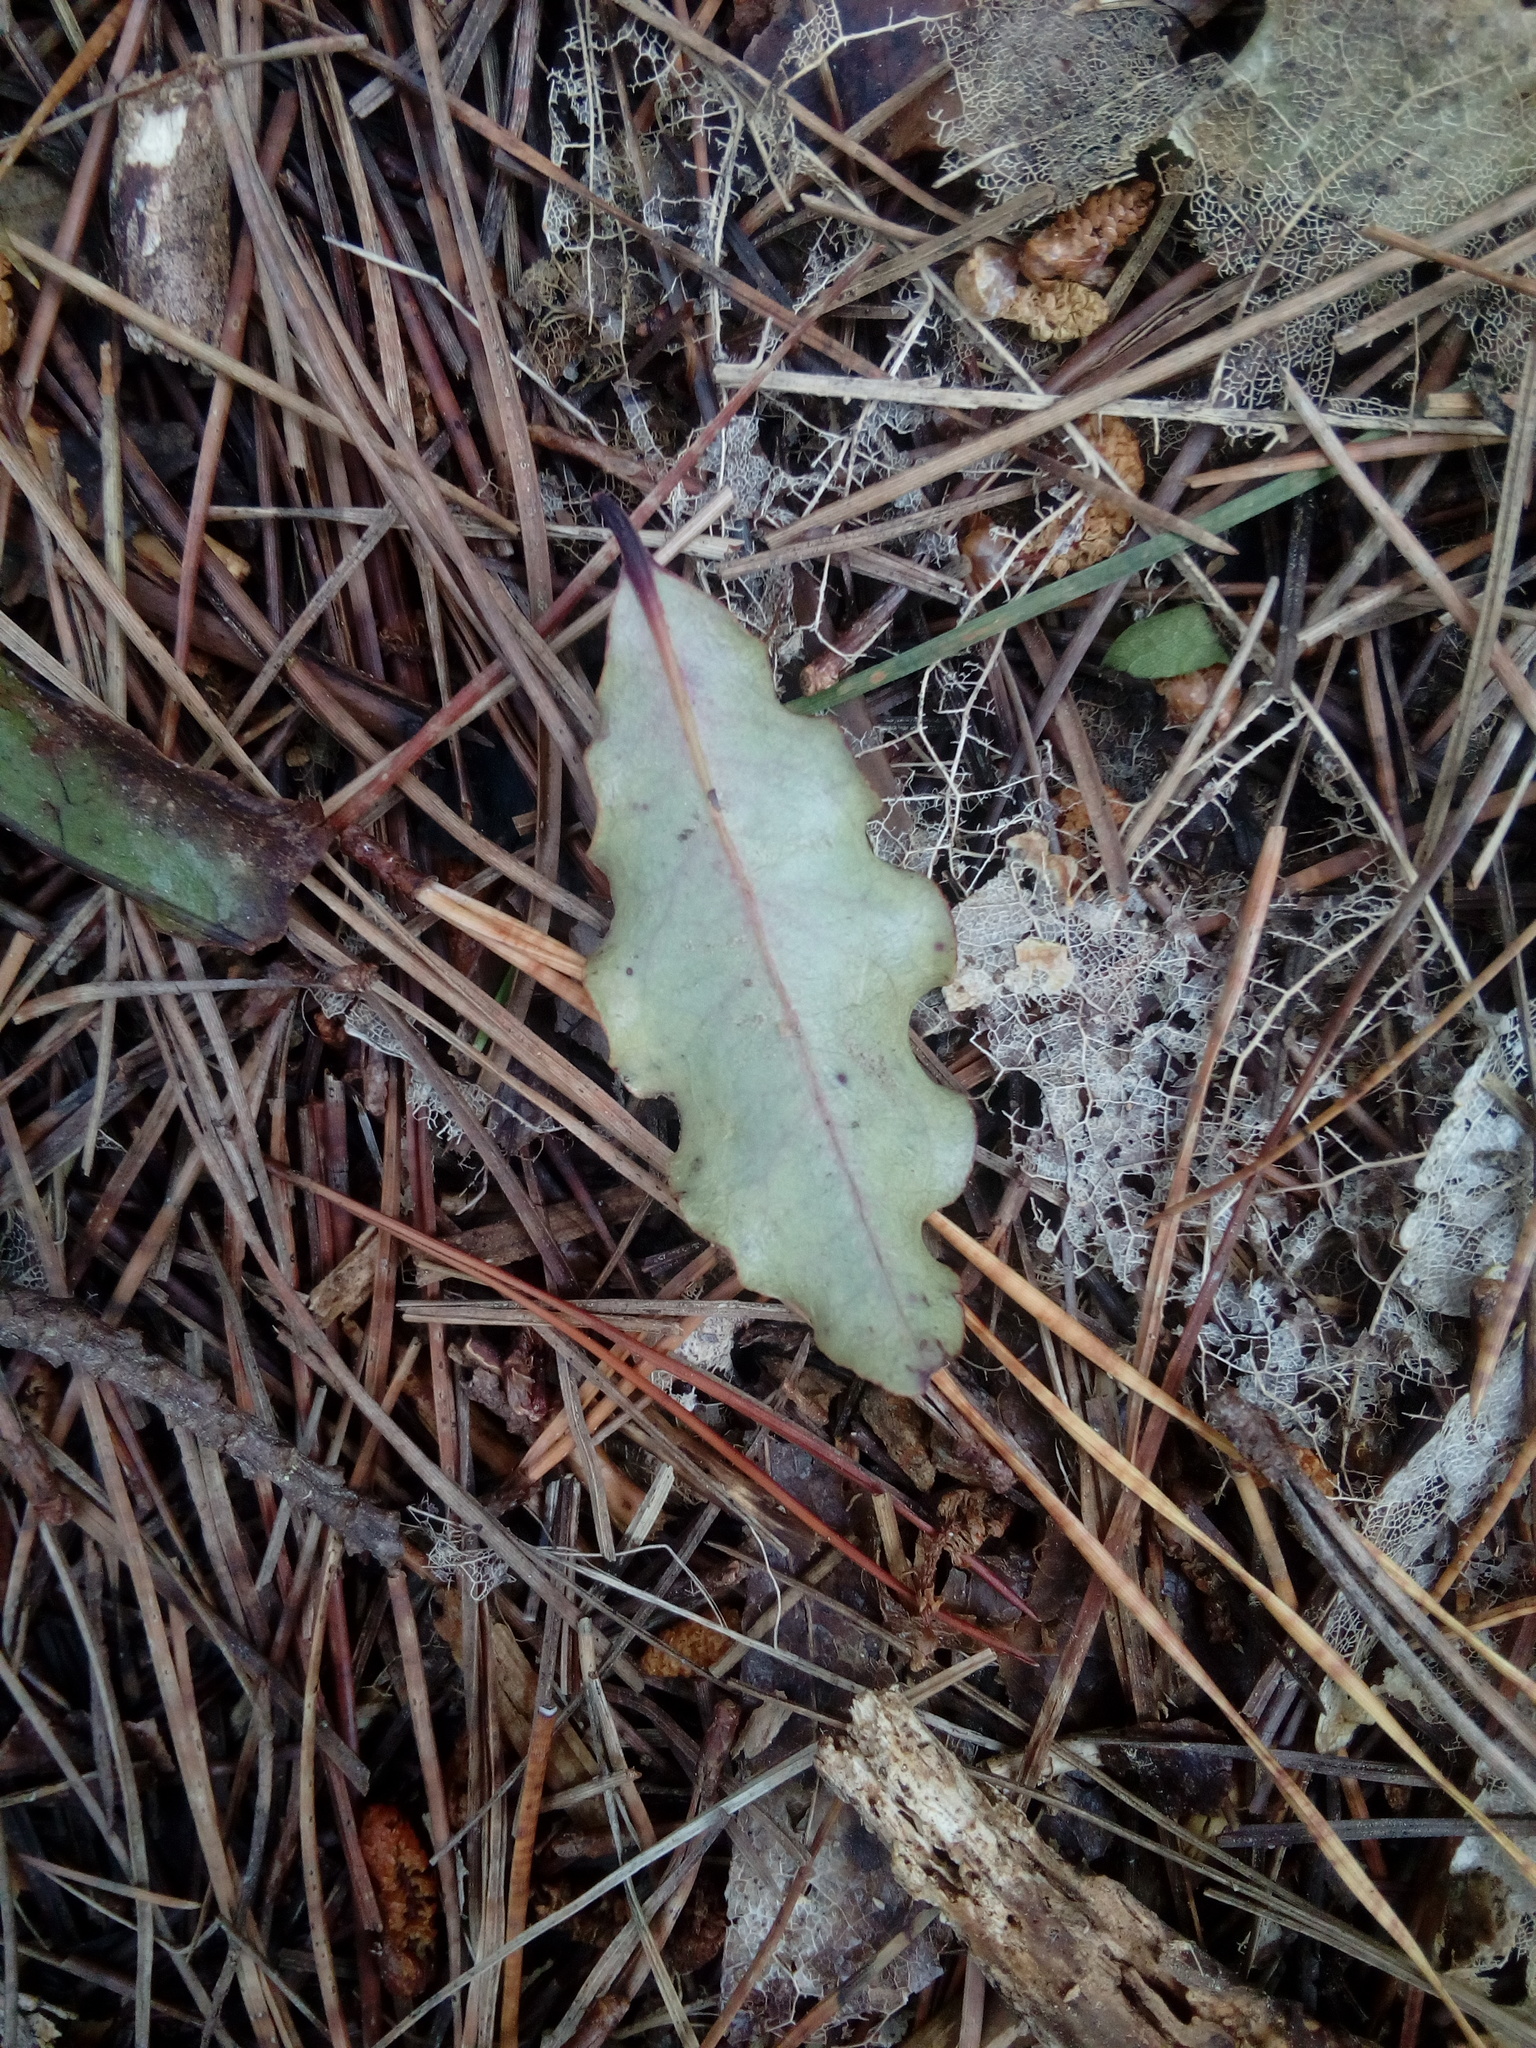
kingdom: Plantae
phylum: Tracheophyta
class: Magnoliopsida
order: Ericales
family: Primulaceae
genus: Myrsine
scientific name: Myrsine australis
